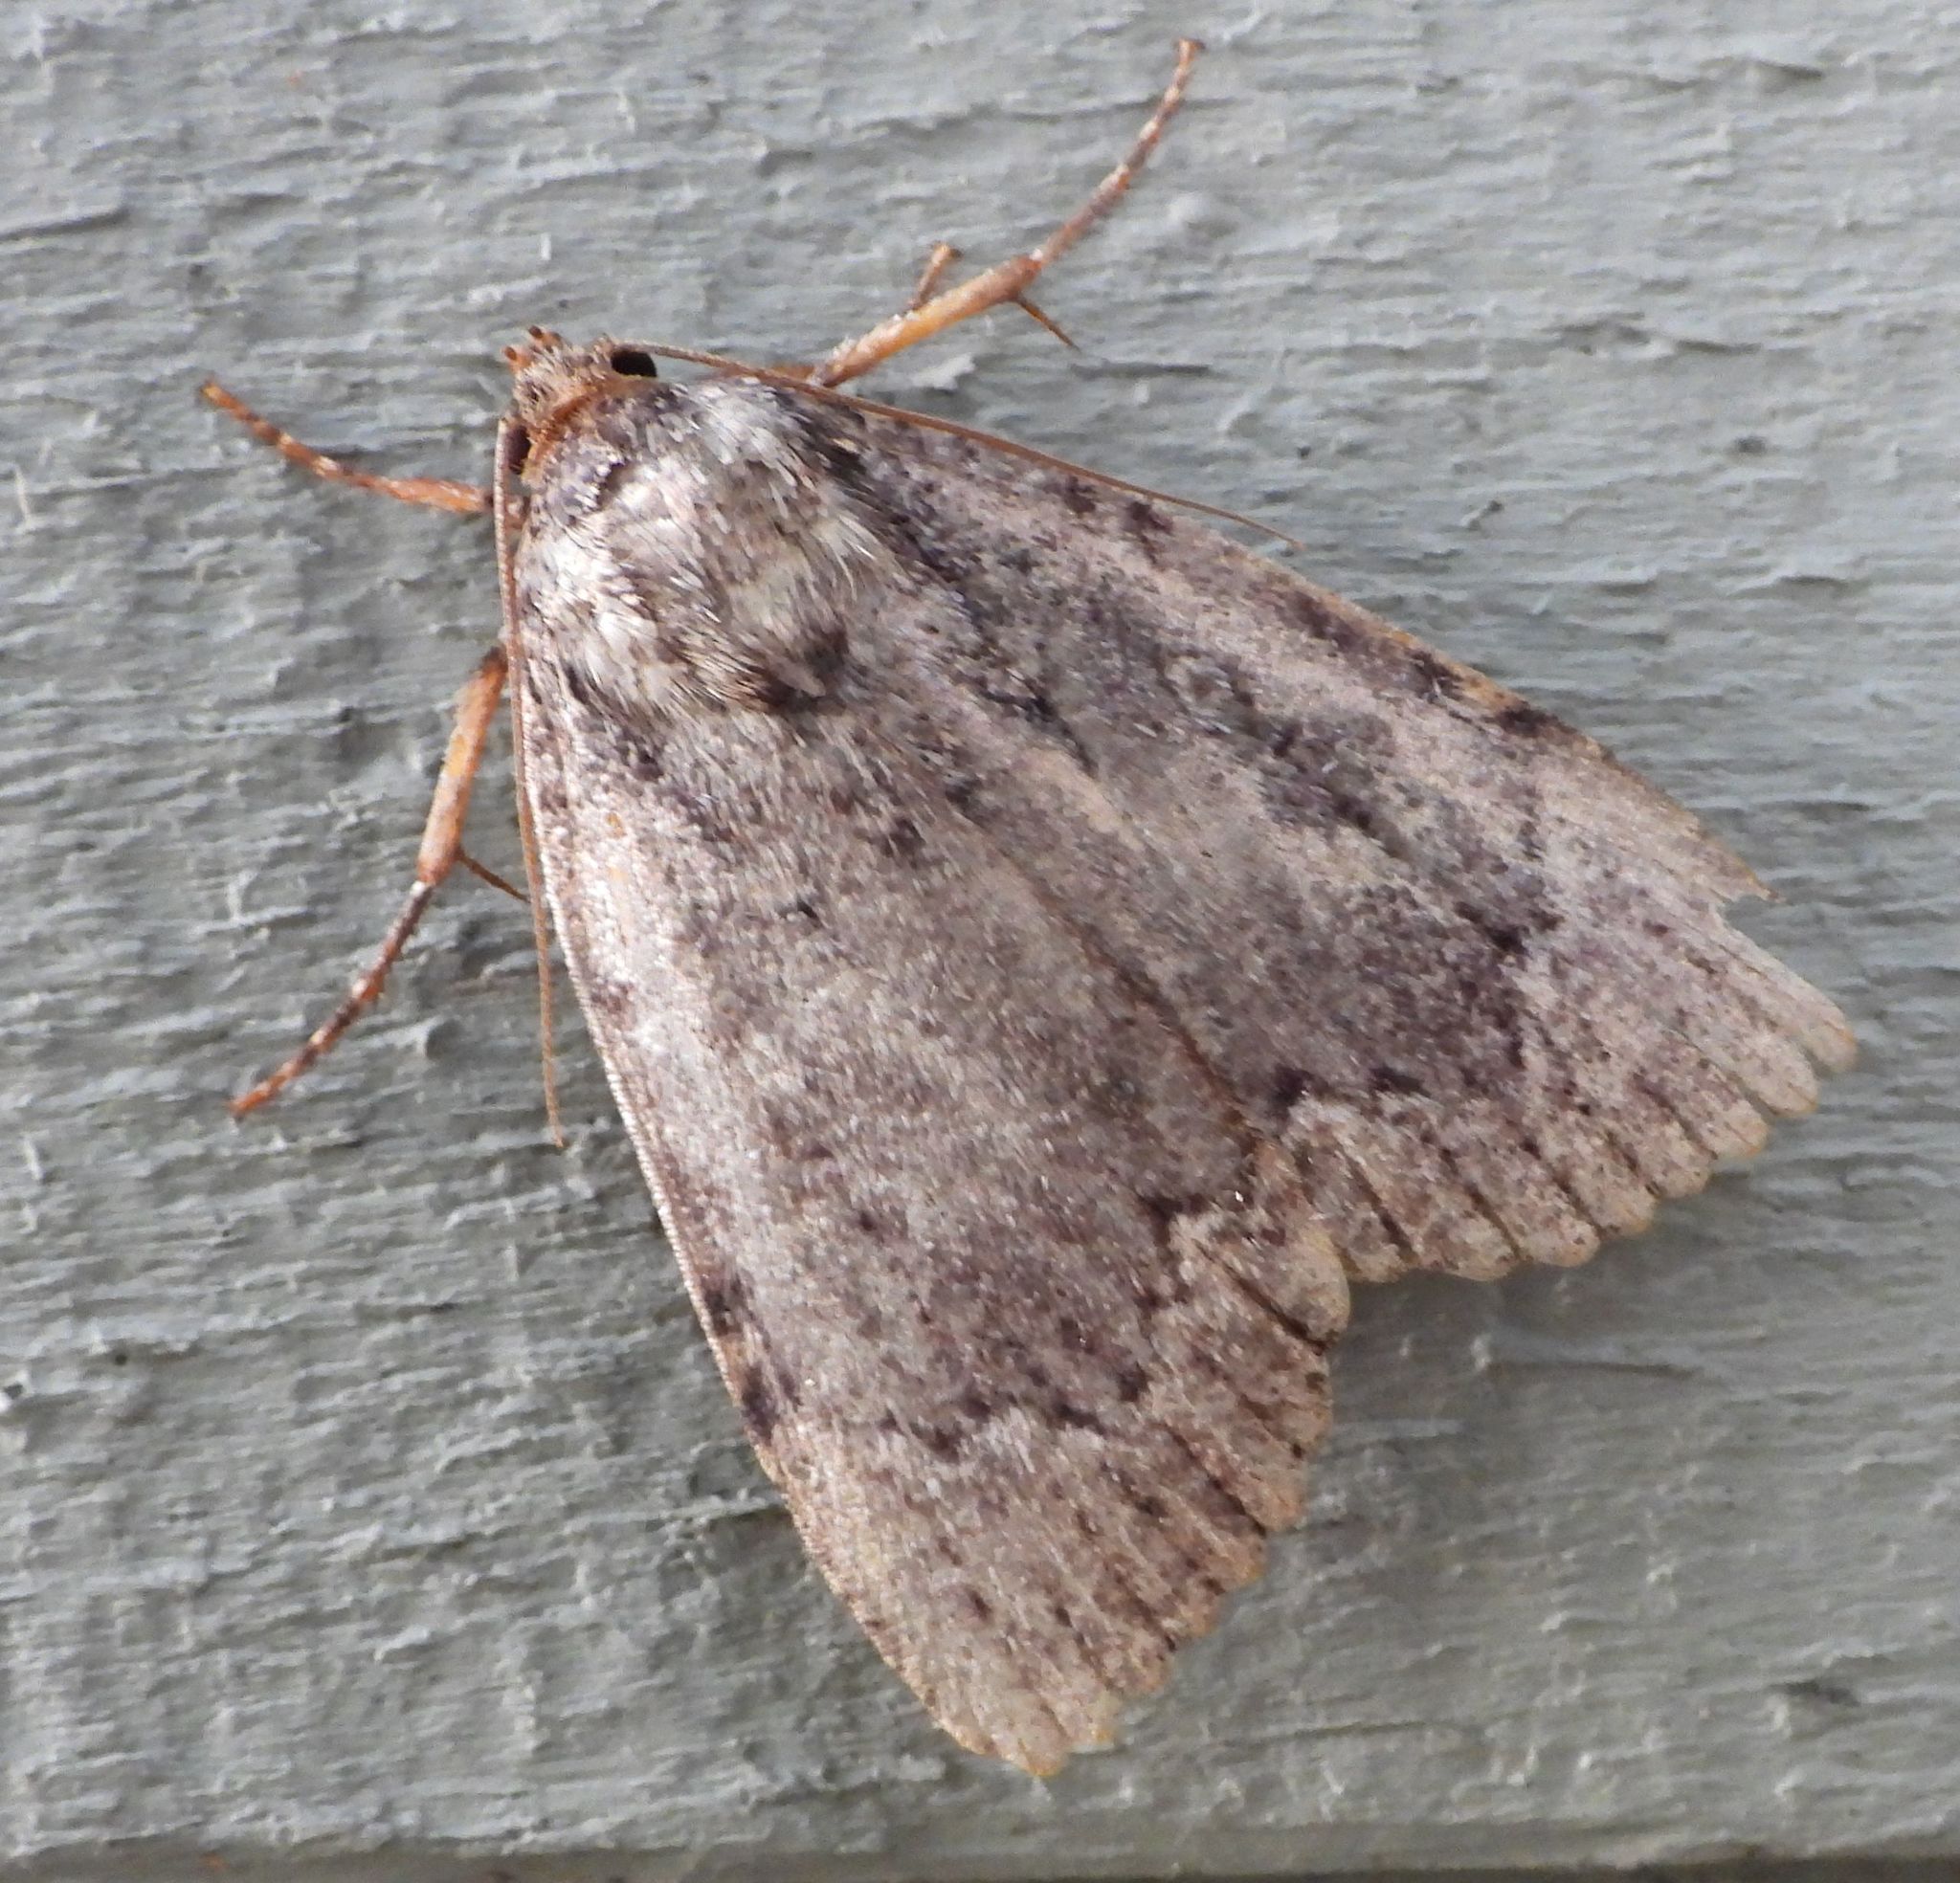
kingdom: Animalia
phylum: Arthropoda
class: Insecta
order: Lepidoptera
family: Noctuidae
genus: Amphipyra
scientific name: Amphipyra pyramidoides
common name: American copper underwing
